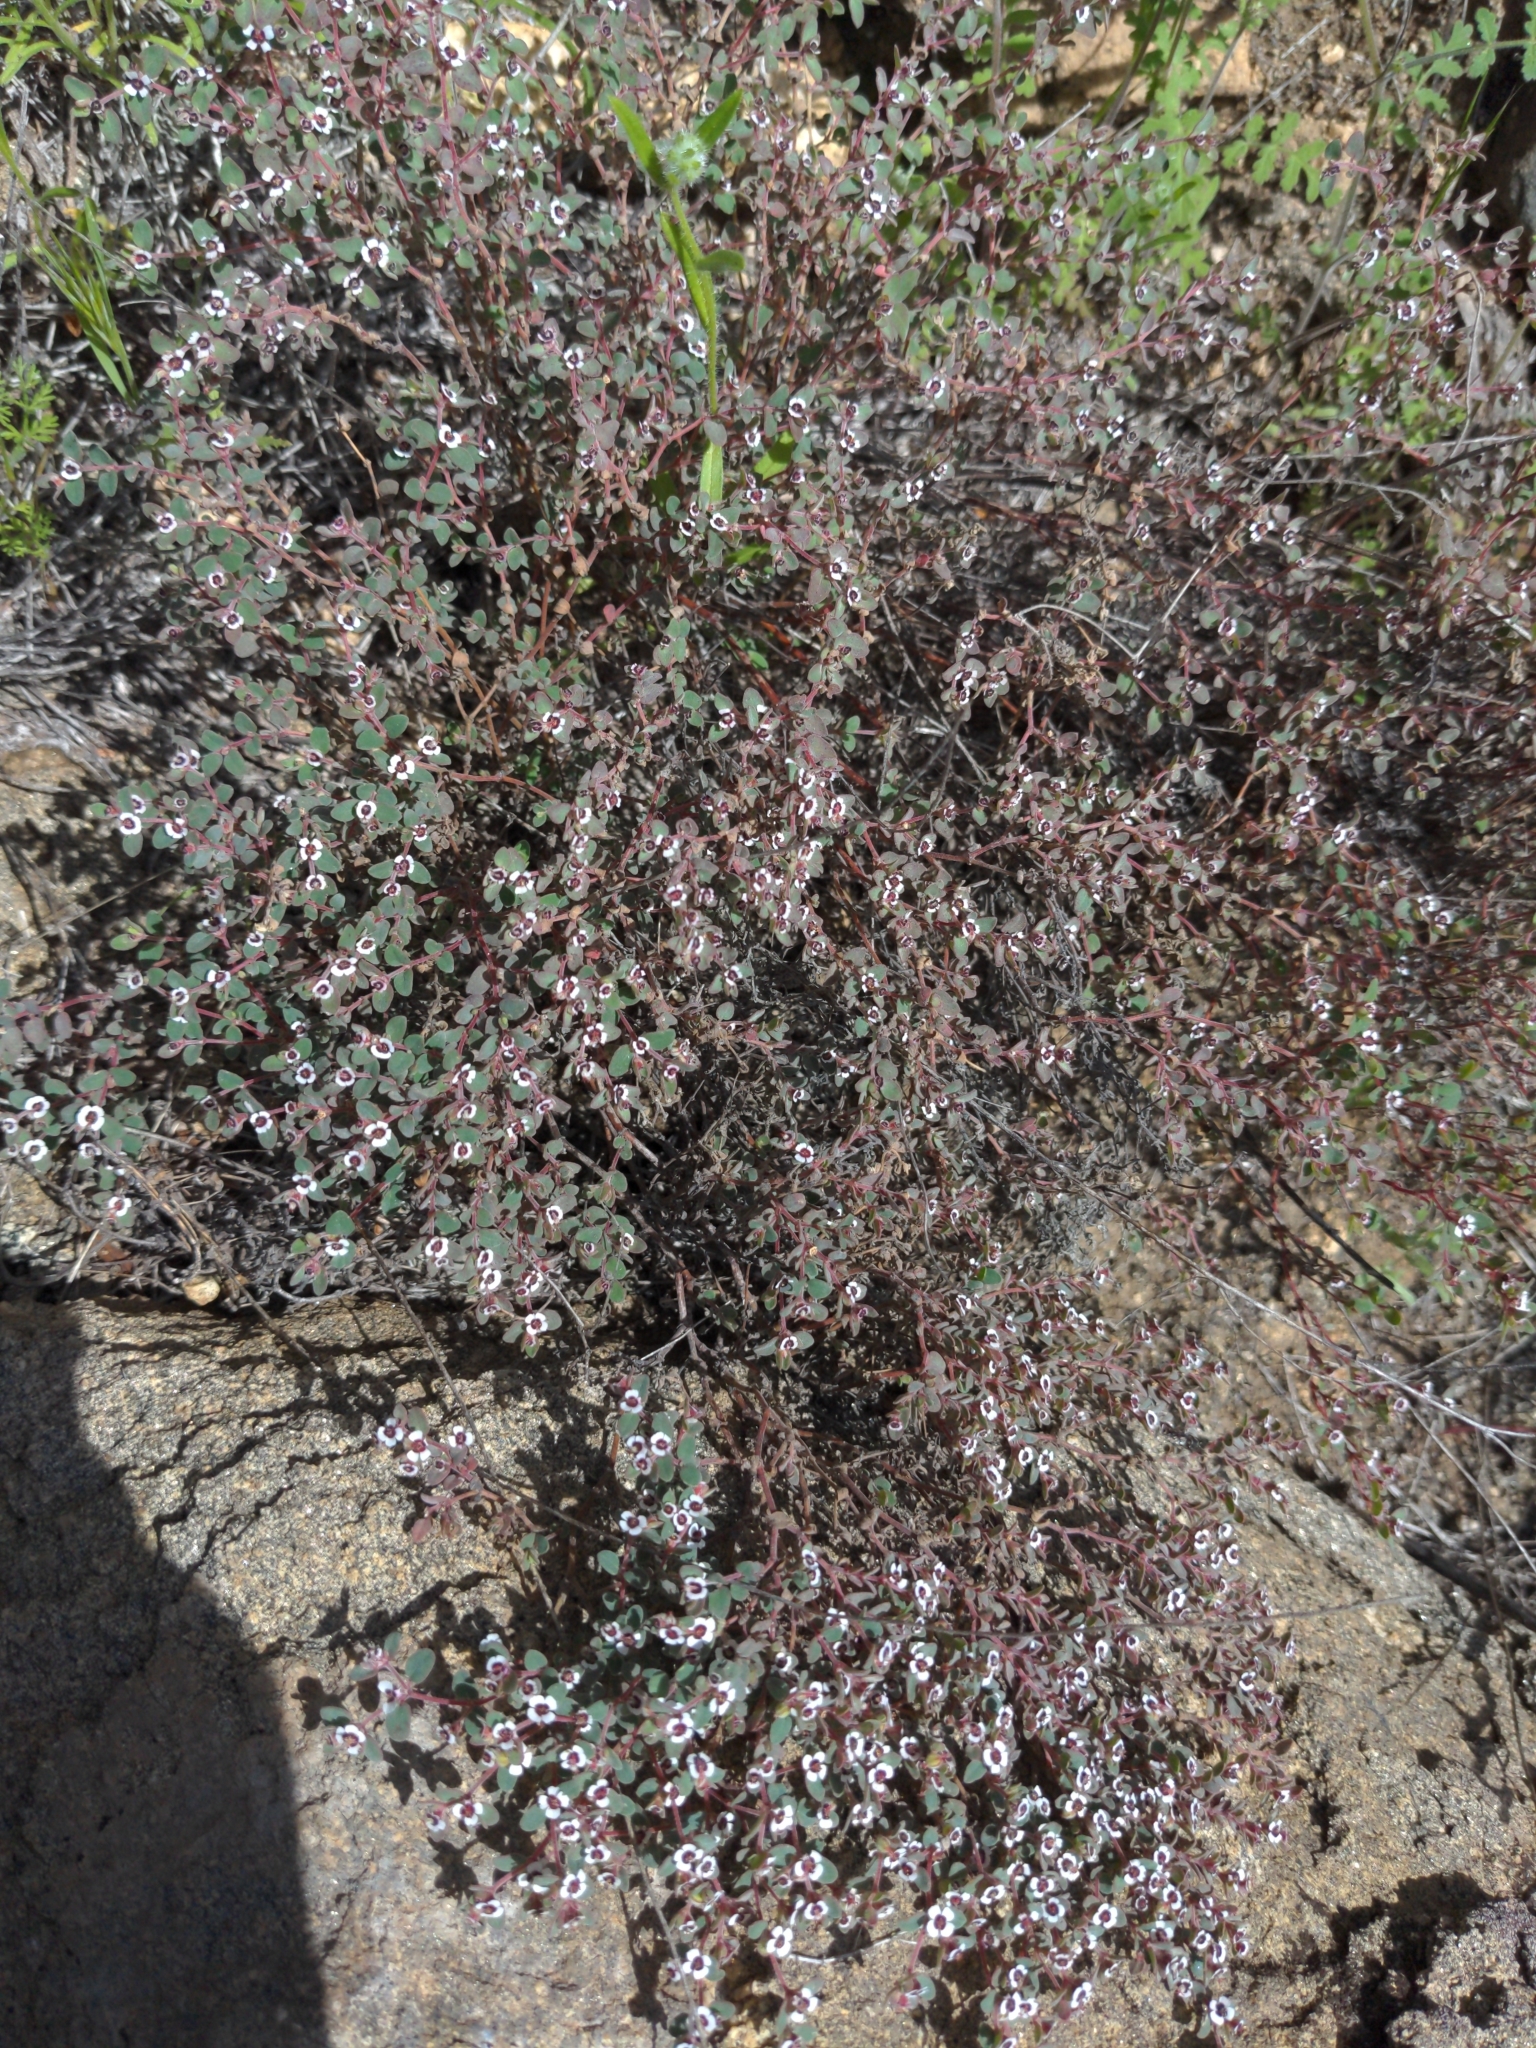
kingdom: Plantae
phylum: Tracheophyta
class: Magnoliopsida
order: Malpighiales
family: Euphorbiaceae
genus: Euphorbia
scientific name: Euphorbia melanadenia
